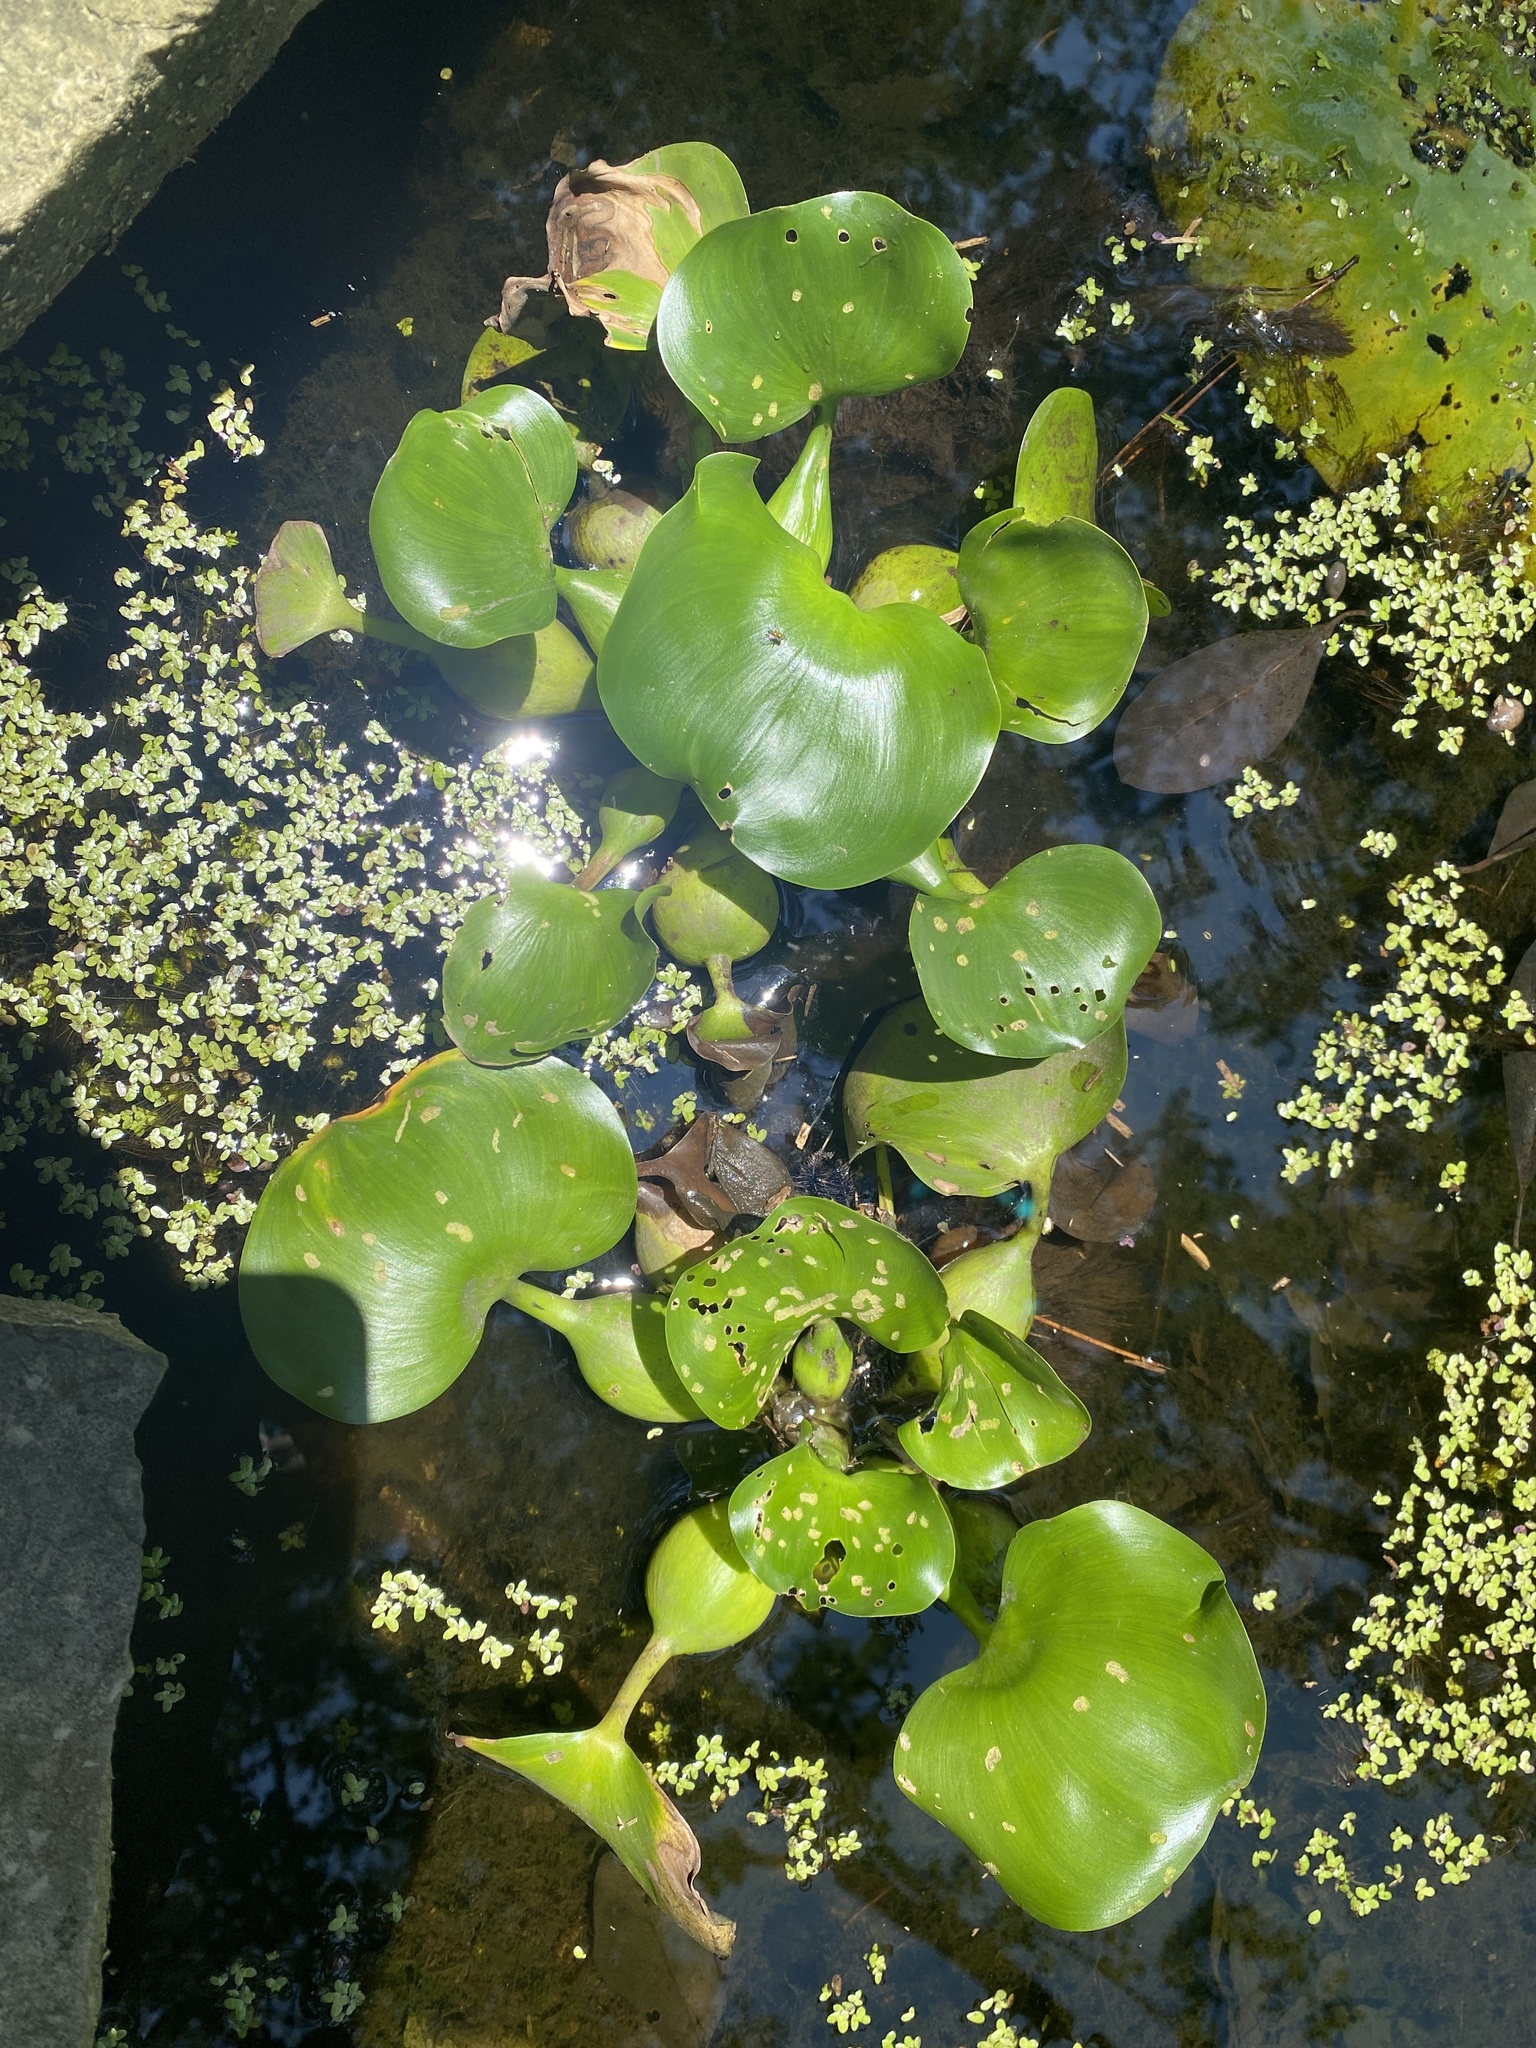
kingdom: Plantae
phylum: Tracheophyta
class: Liliopsida
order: Commelinales
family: Pontederiaceae
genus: Pontederia
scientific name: Pontederia crassipes
